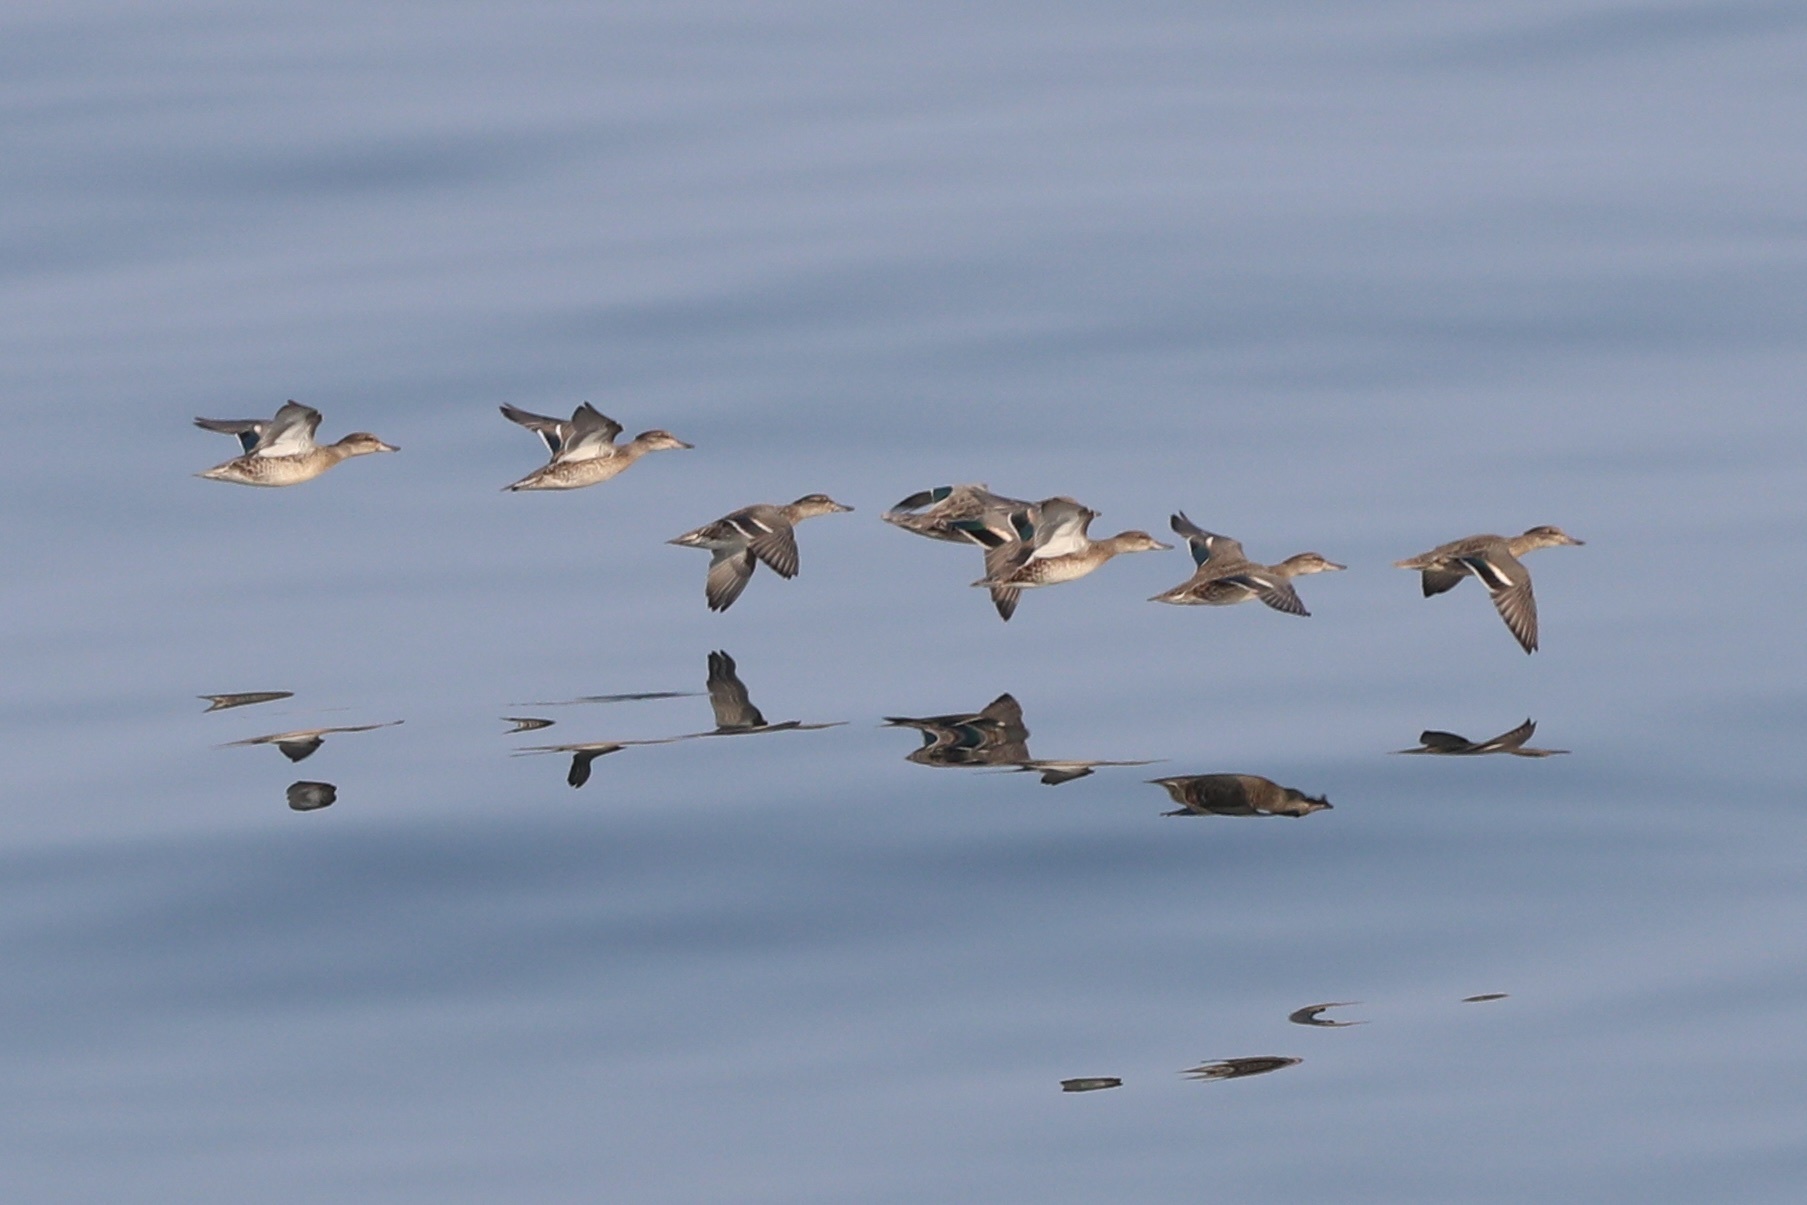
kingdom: Animalia
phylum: Chordata
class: Aves
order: Anseriformes
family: Anatidae
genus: Anas
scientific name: Anas crecca
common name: Eurasian teal
